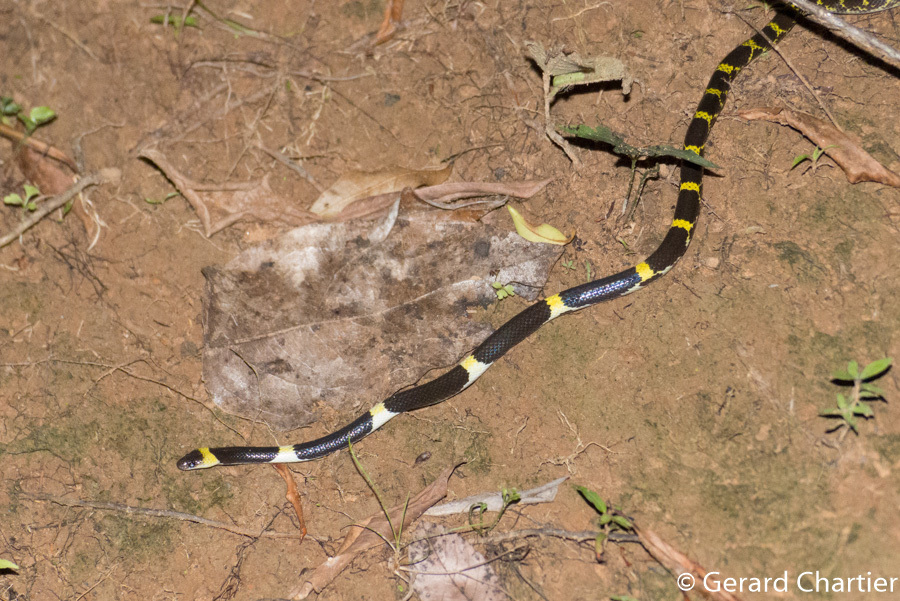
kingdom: Animalia
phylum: Chordata
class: Squamata
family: Colubridae
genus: Lycodon
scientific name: Lycodon laoensis
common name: Laotian wolf snake
